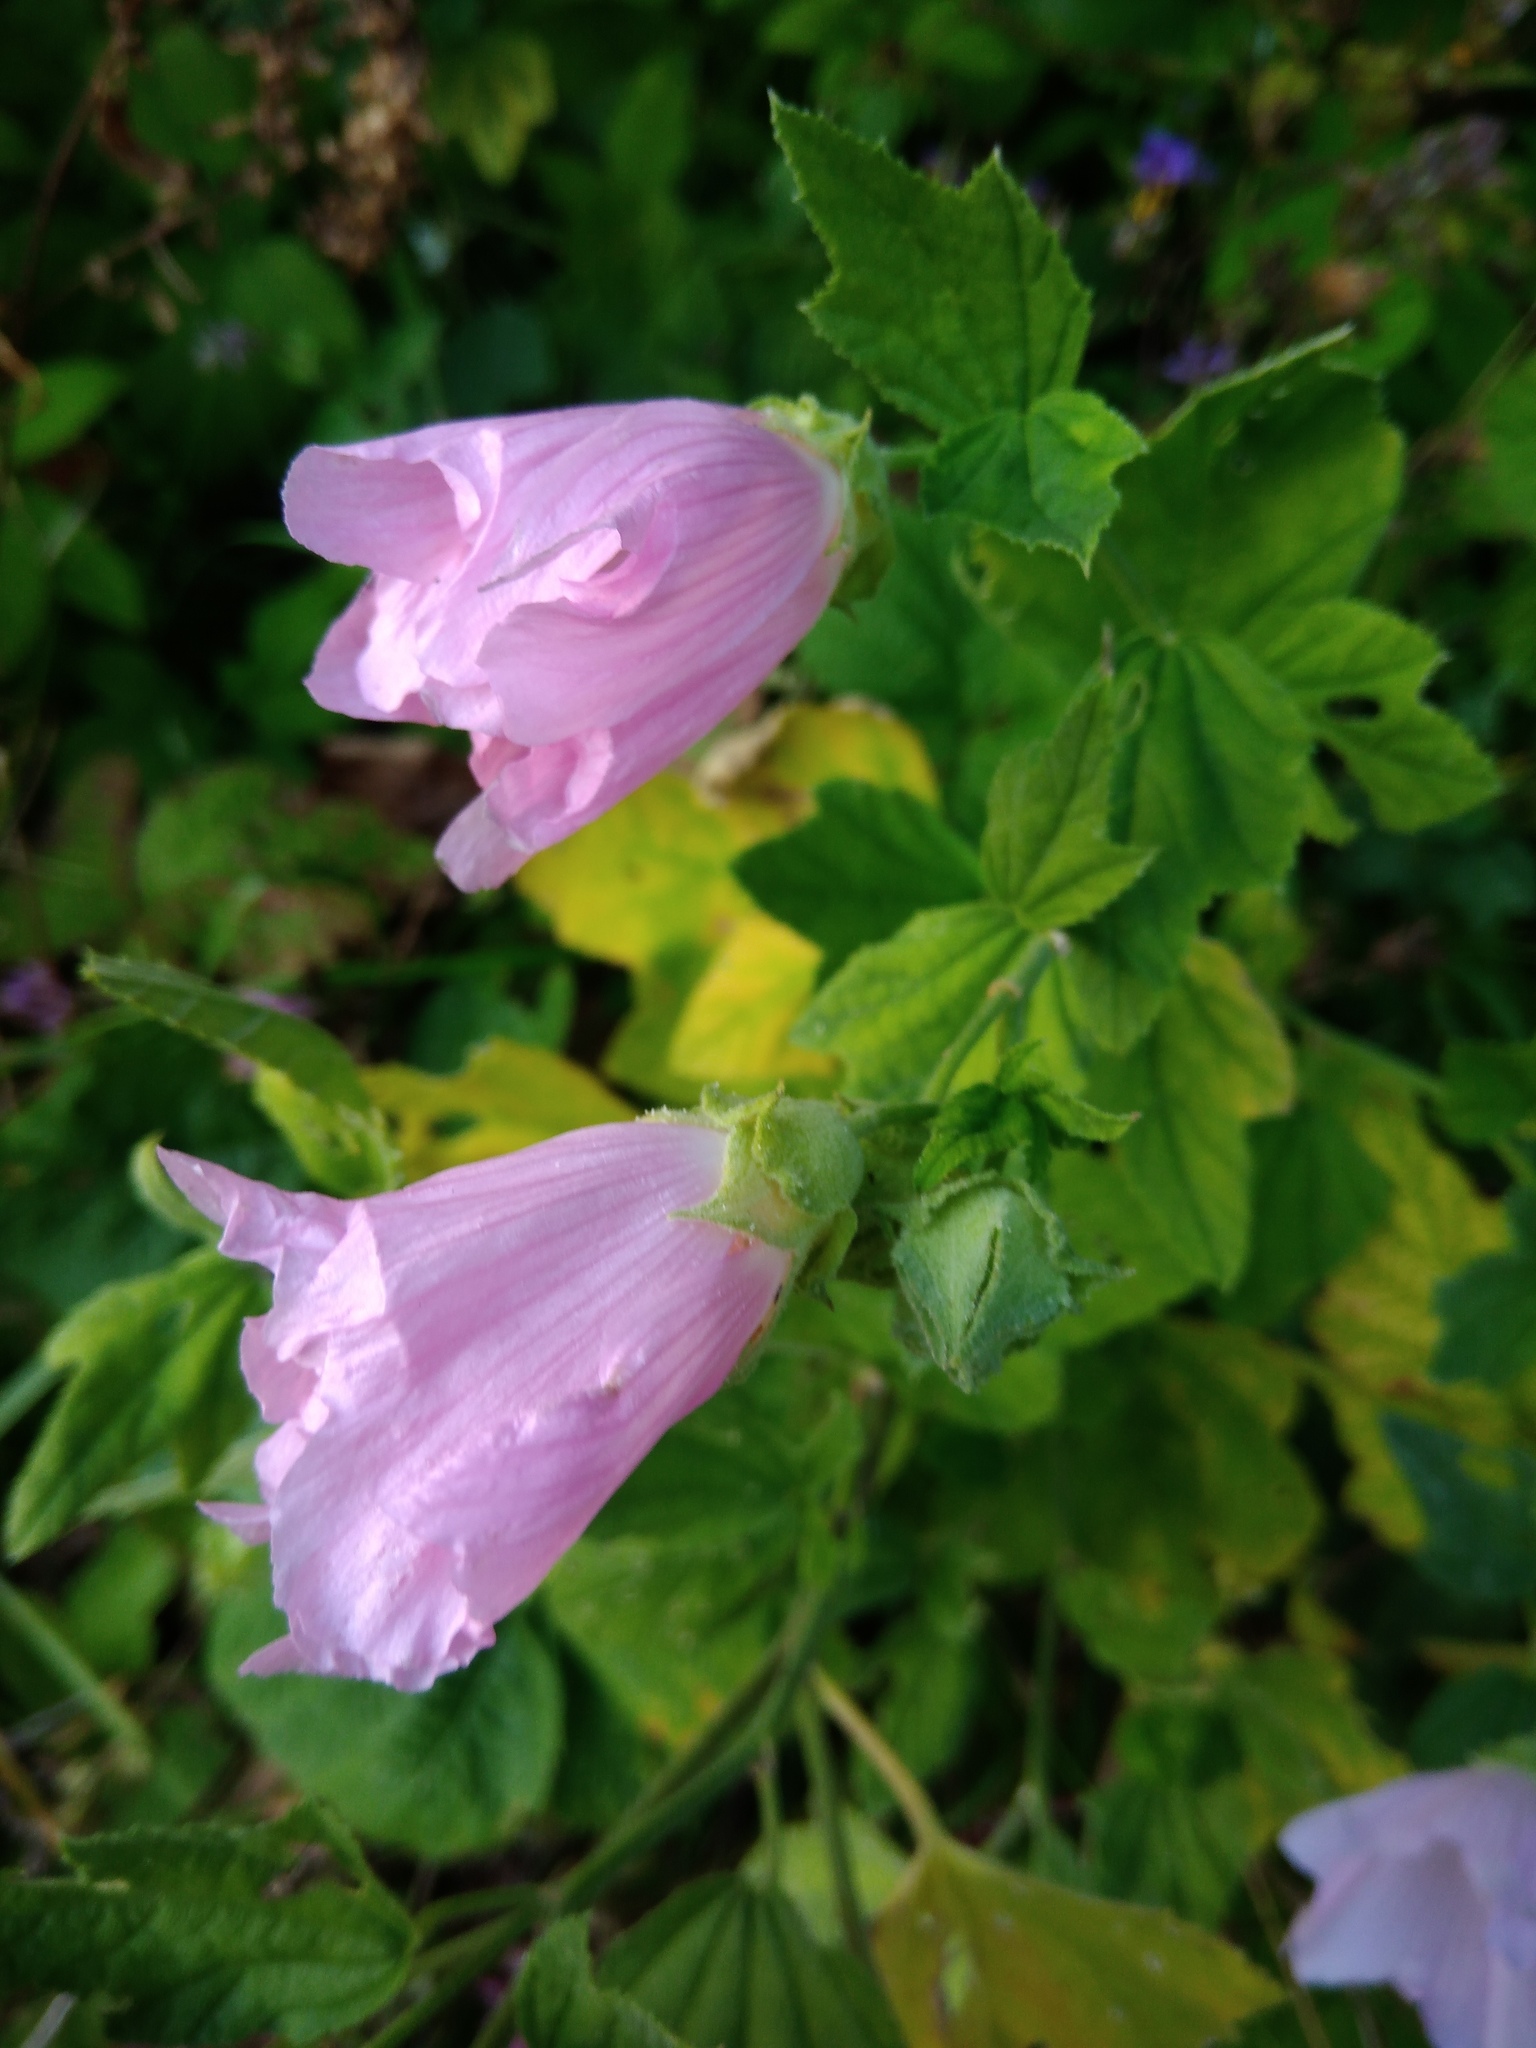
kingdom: Plantae
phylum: Tracheophyta
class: Magnoliopsida
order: Malvales
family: Malvaceae
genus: Malva
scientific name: Malva thuringiaca
